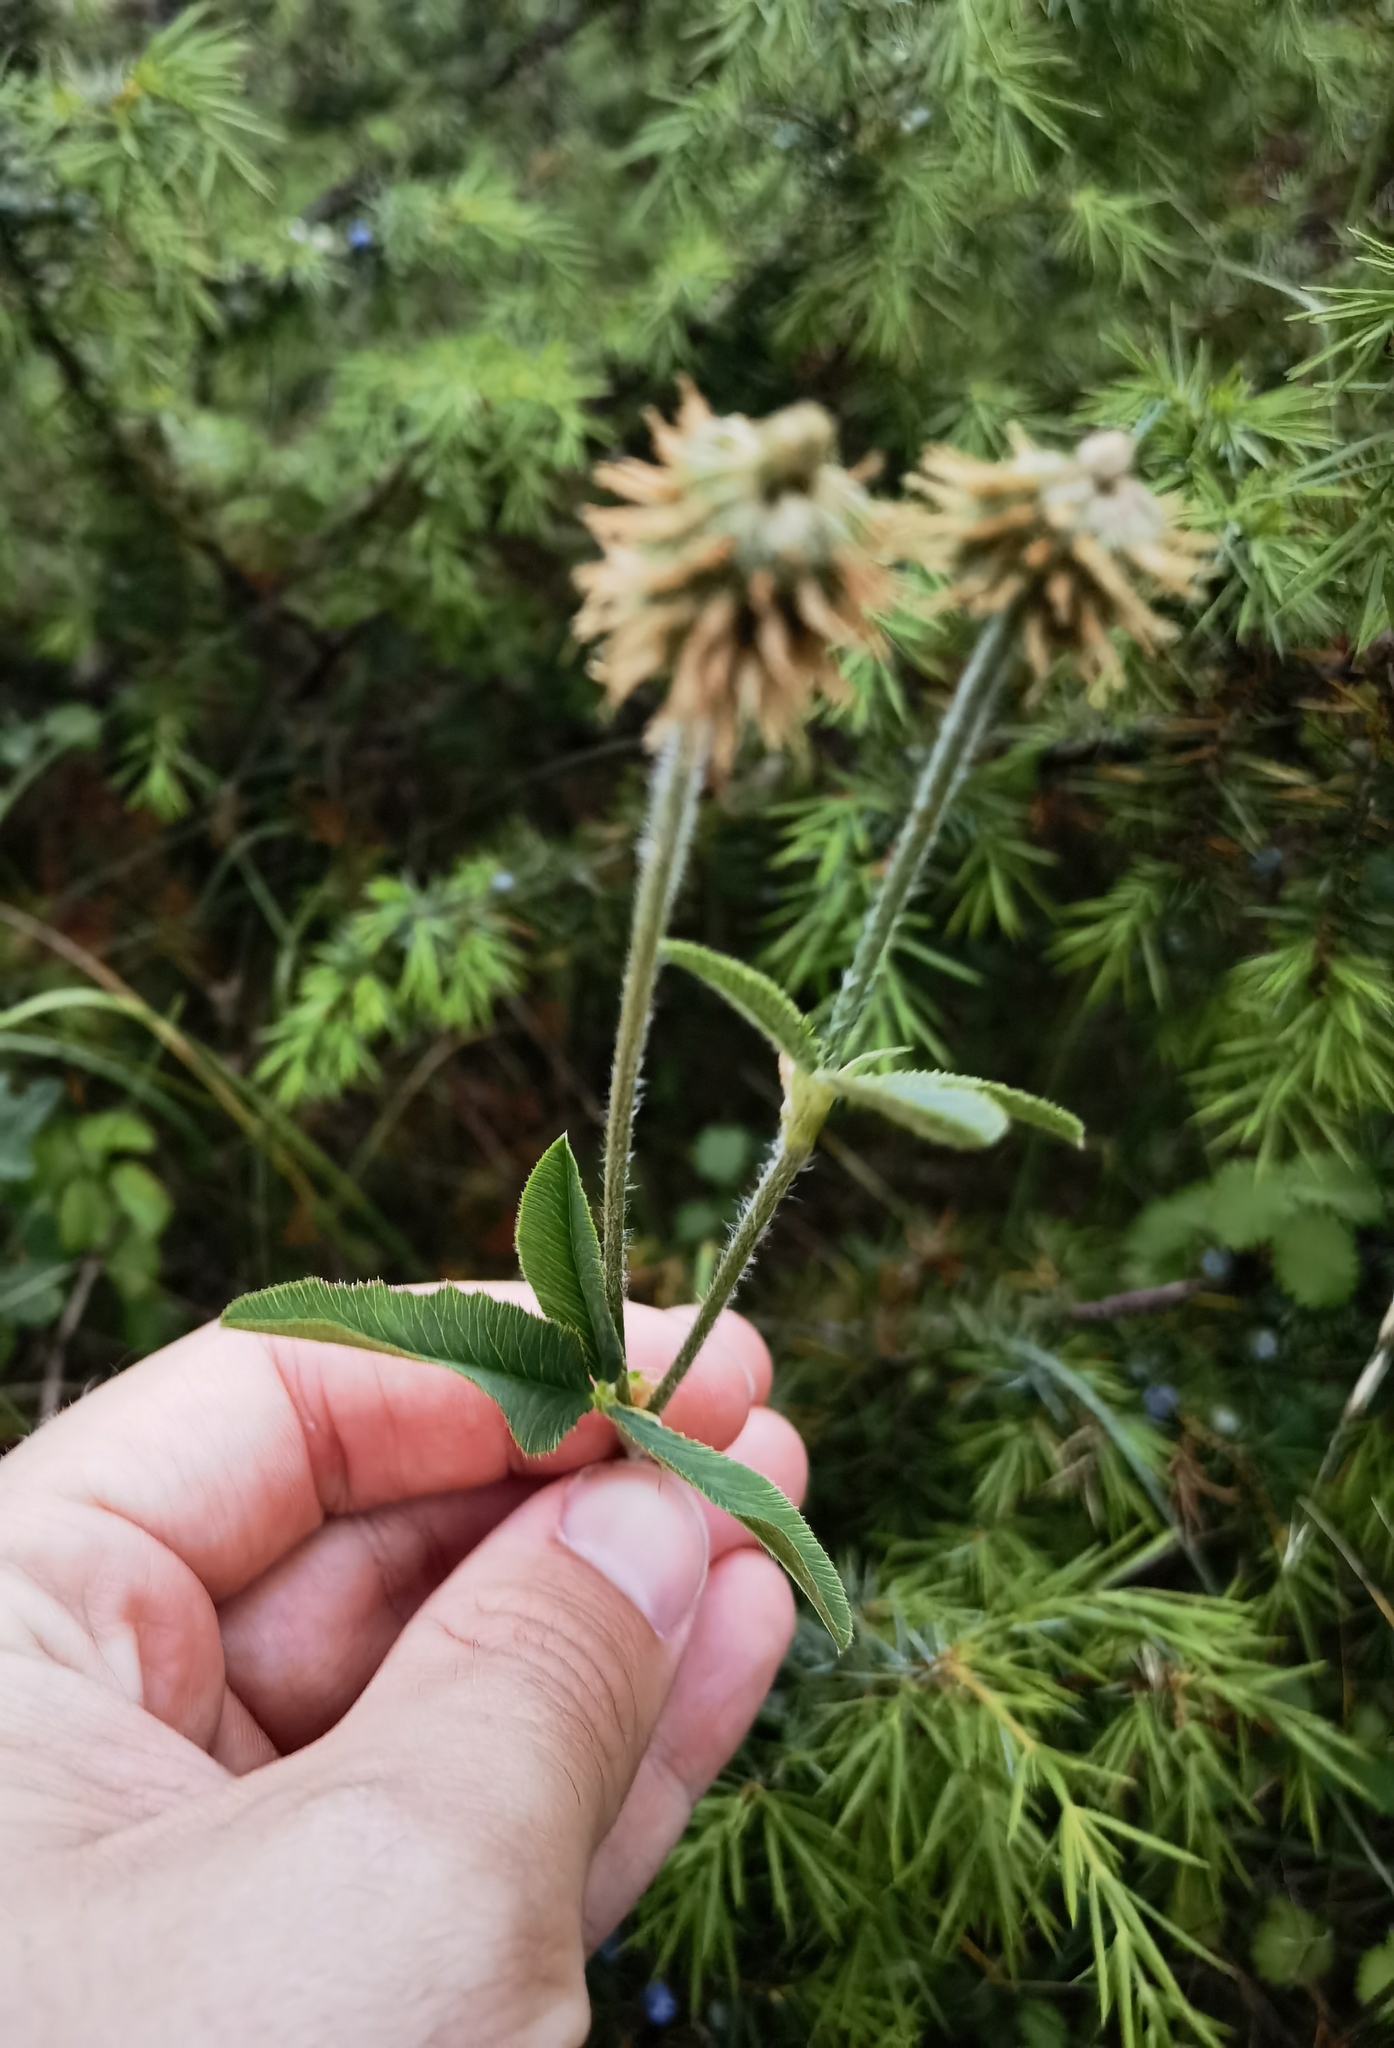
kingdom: Plantae
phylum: Tracheophyta
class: Magnoliopsida
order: Fabales
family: Fabaceae
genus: Trifolium
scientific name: Trifolium montanum
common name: Mountain clover
